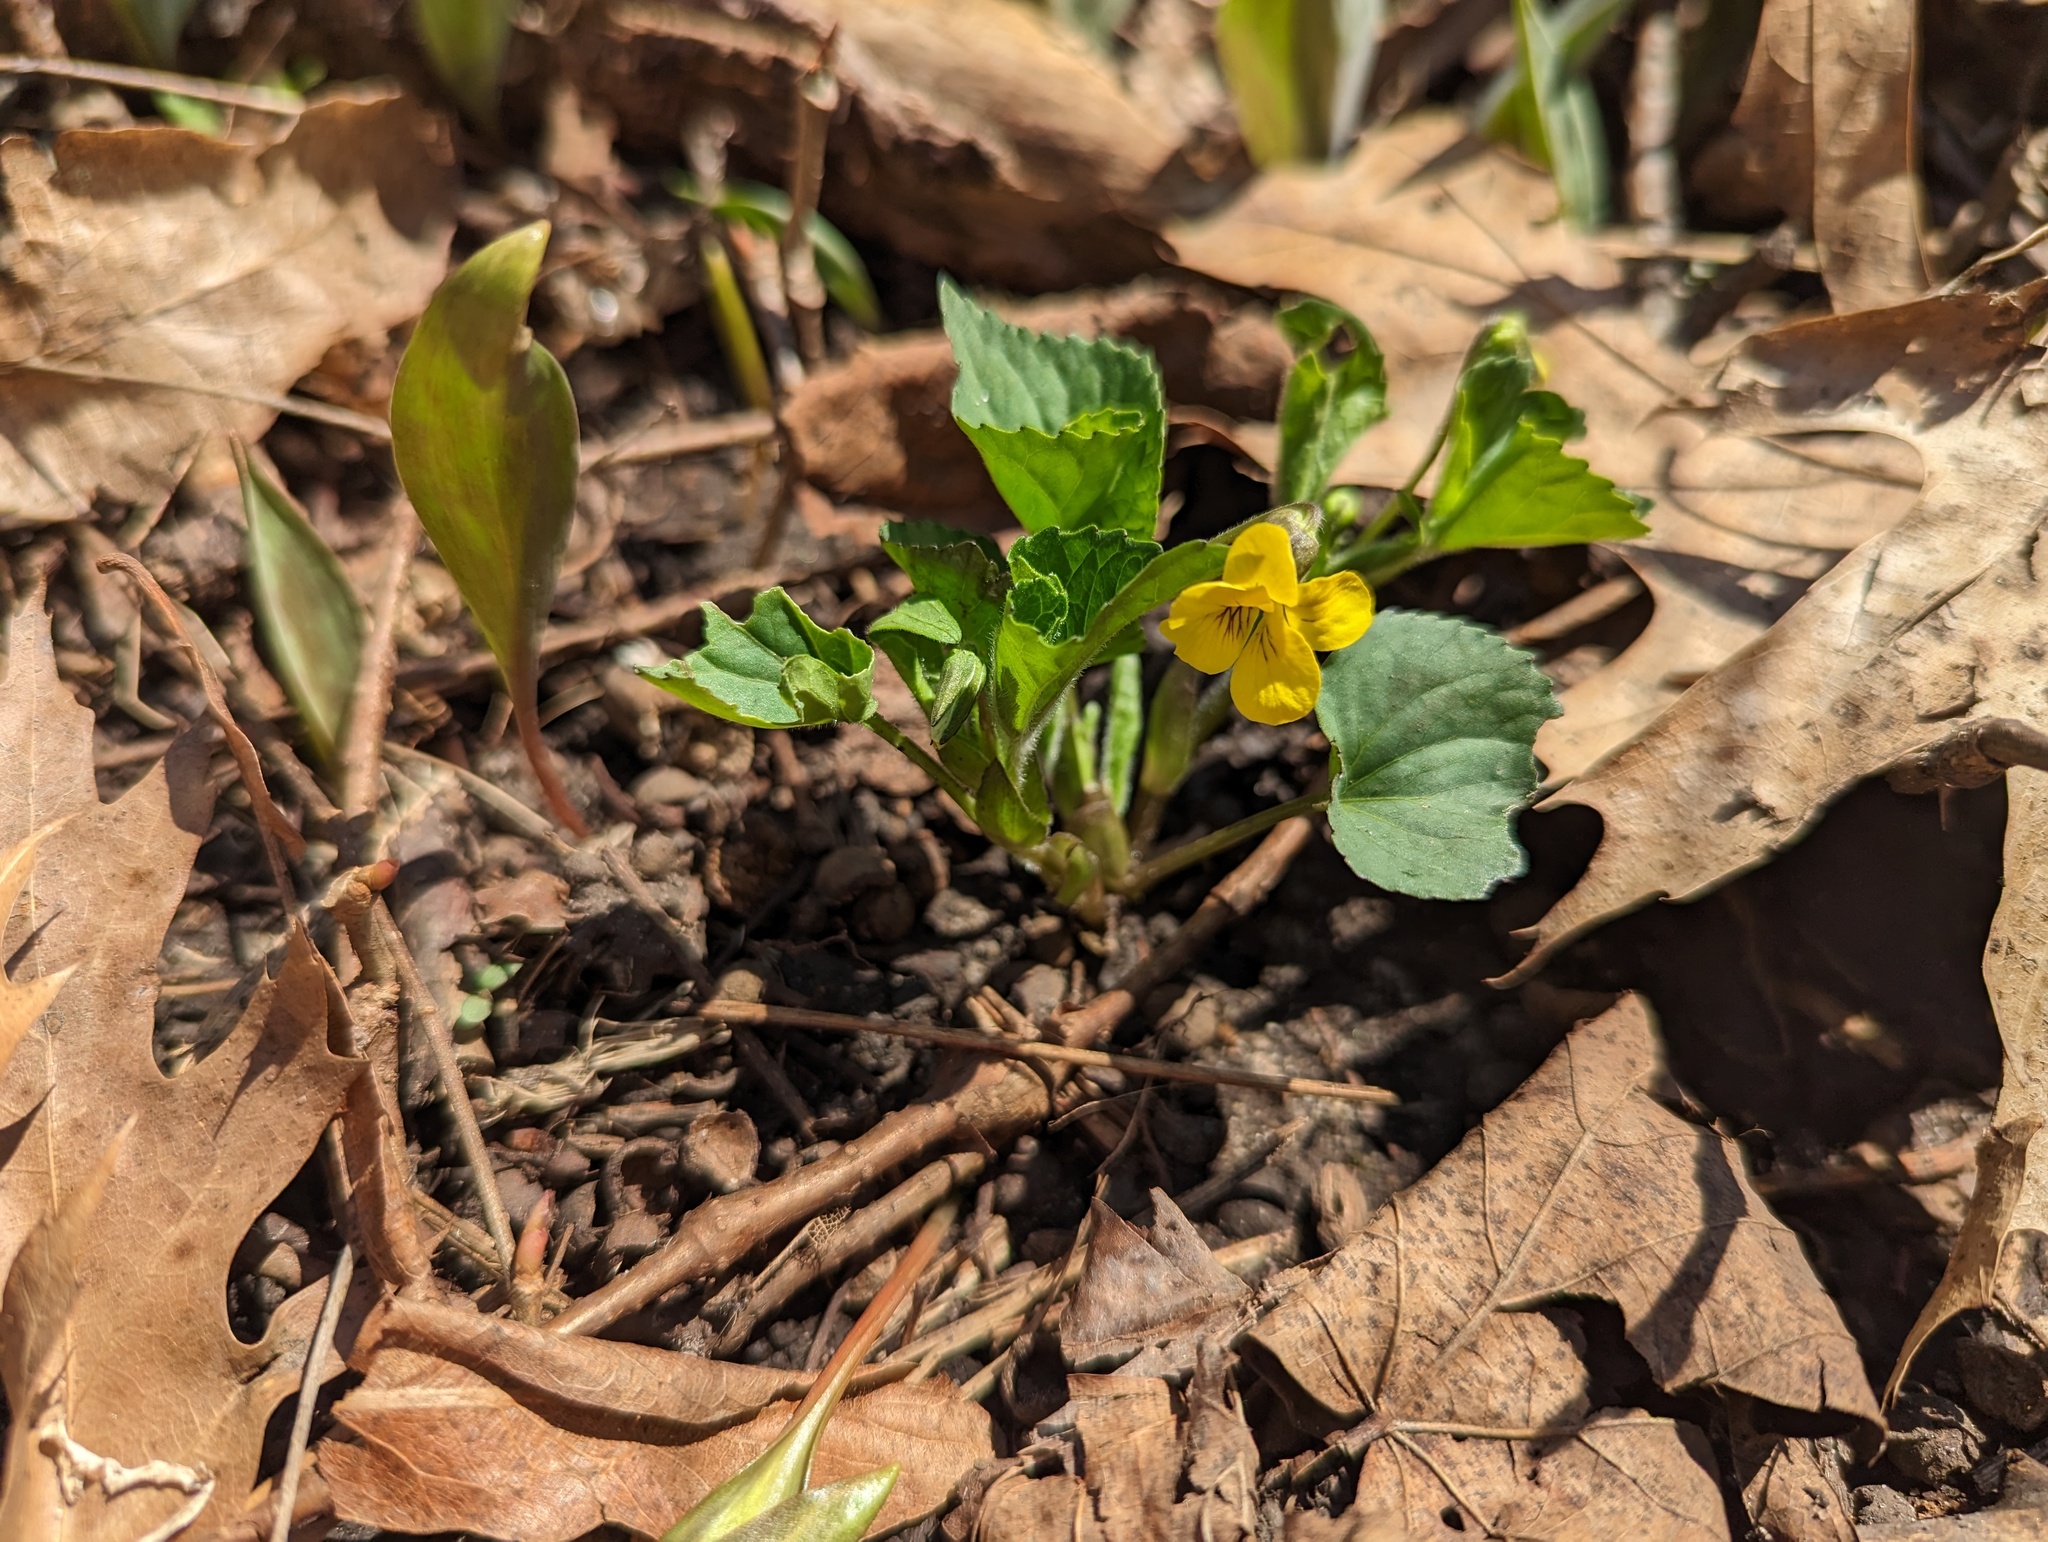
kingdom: Plantae
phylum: Tracheophyta
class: Magnoliopsida
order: Malpighiales
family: Violaceae
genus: Viola
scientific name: Viola eriocarpa
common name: Smooth yellow violet
